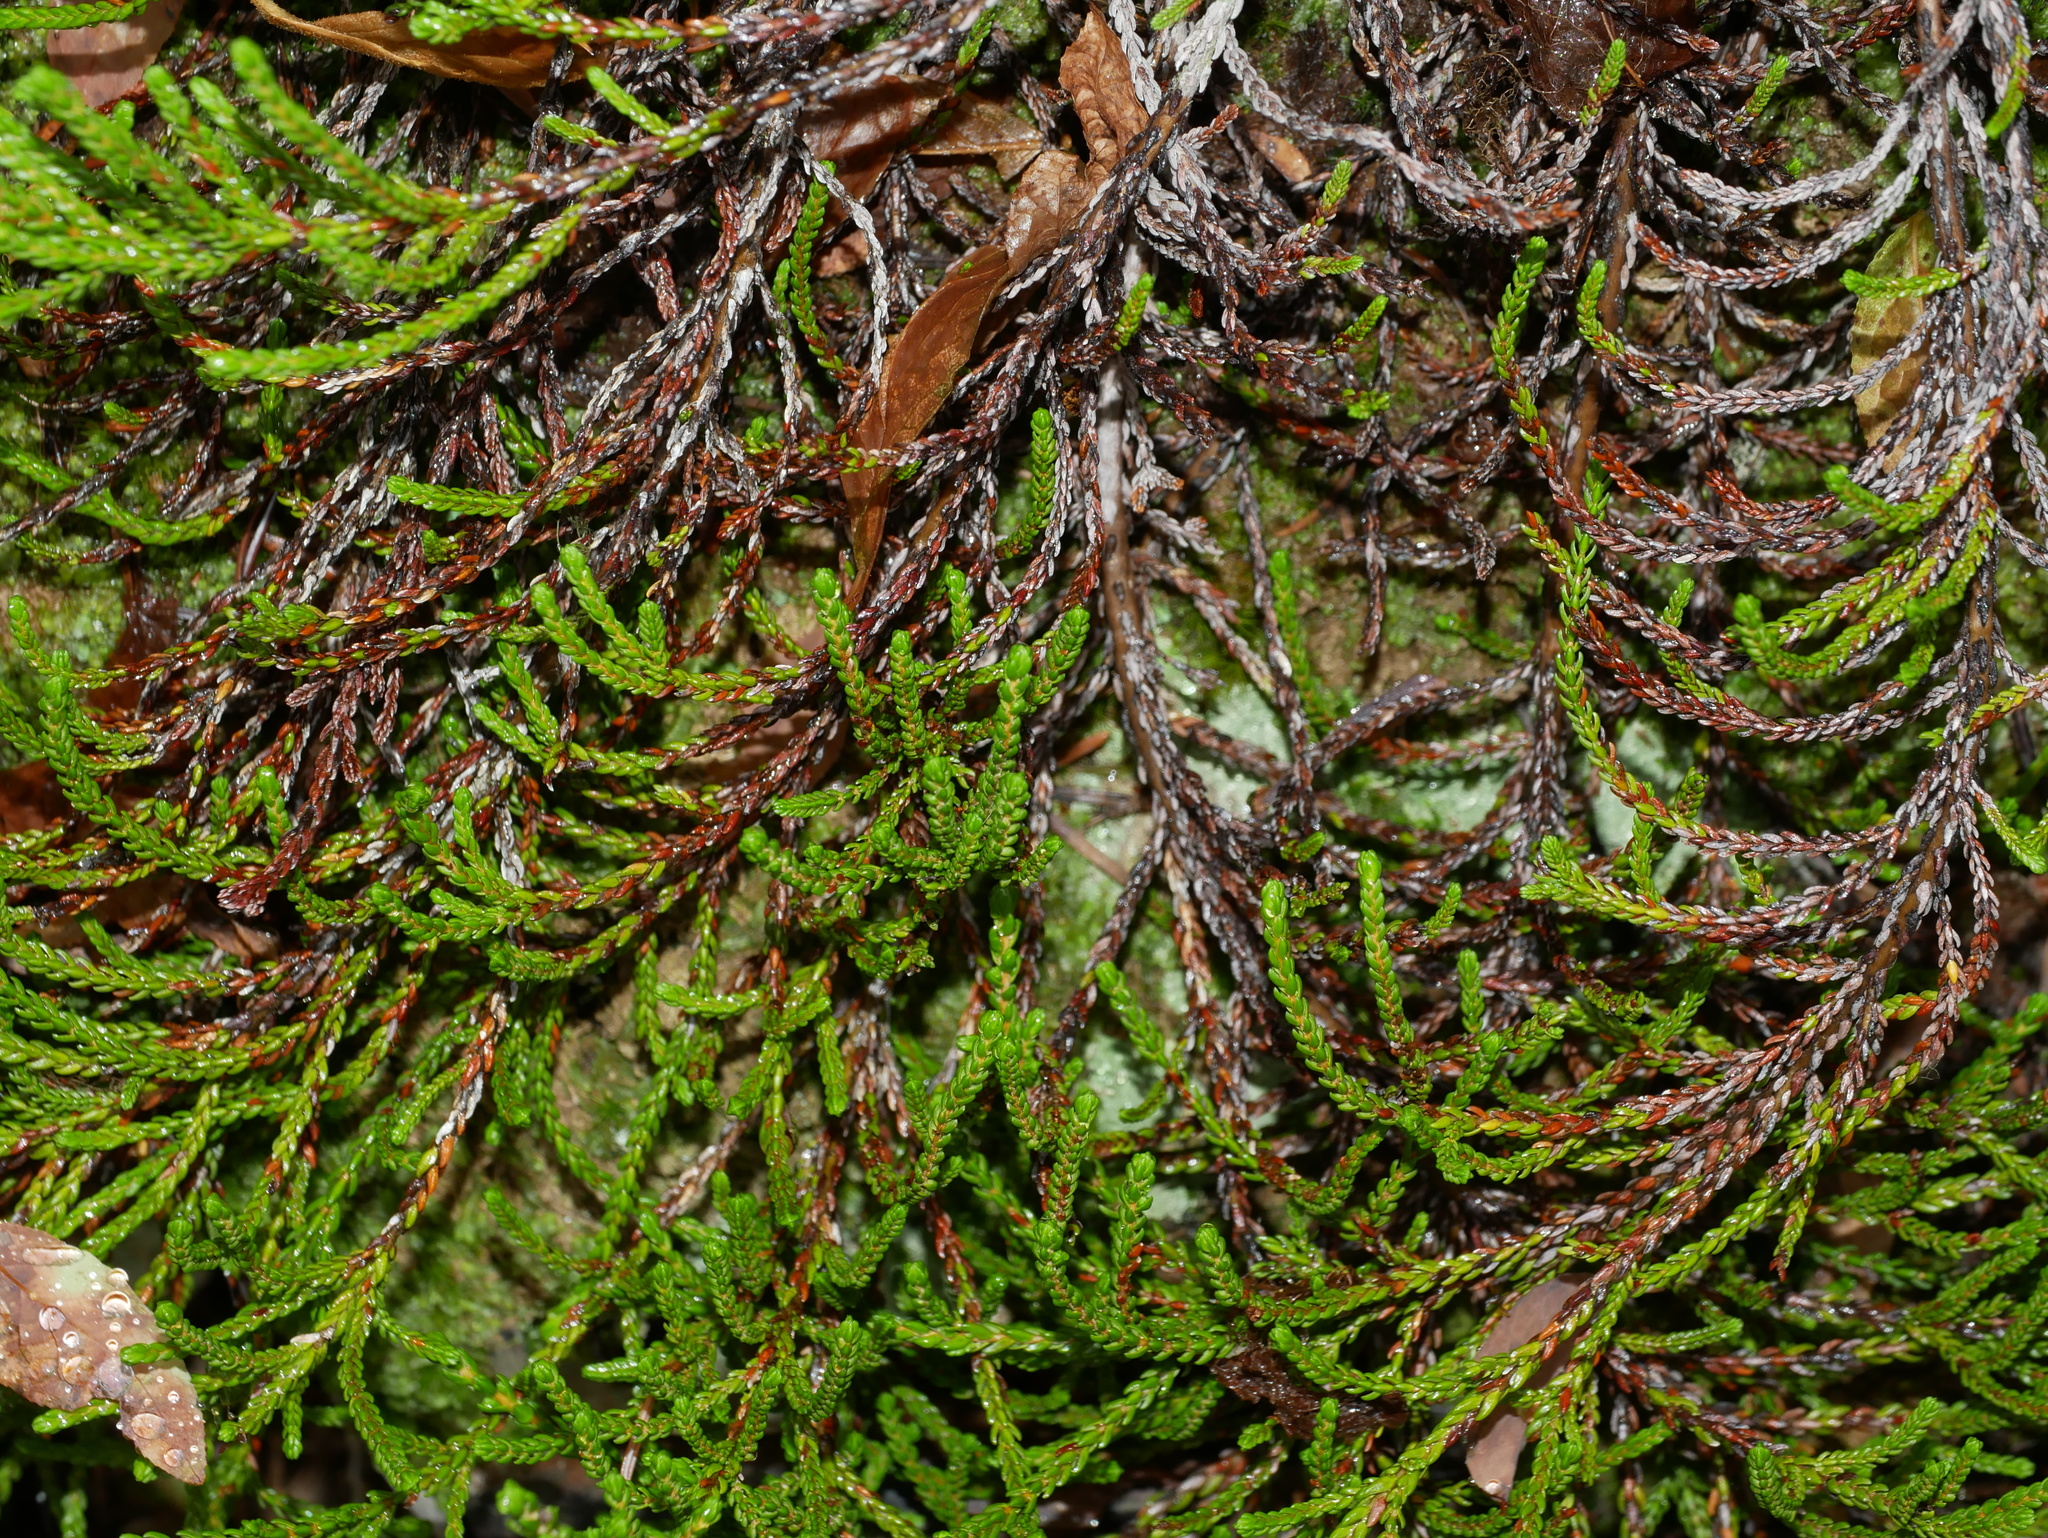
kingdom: Plantae
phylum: Tracheophyta
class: Magnoliopsida
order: Ericales
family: Ericaceae
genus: Cassiope
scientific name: Cassiope mertensiana
